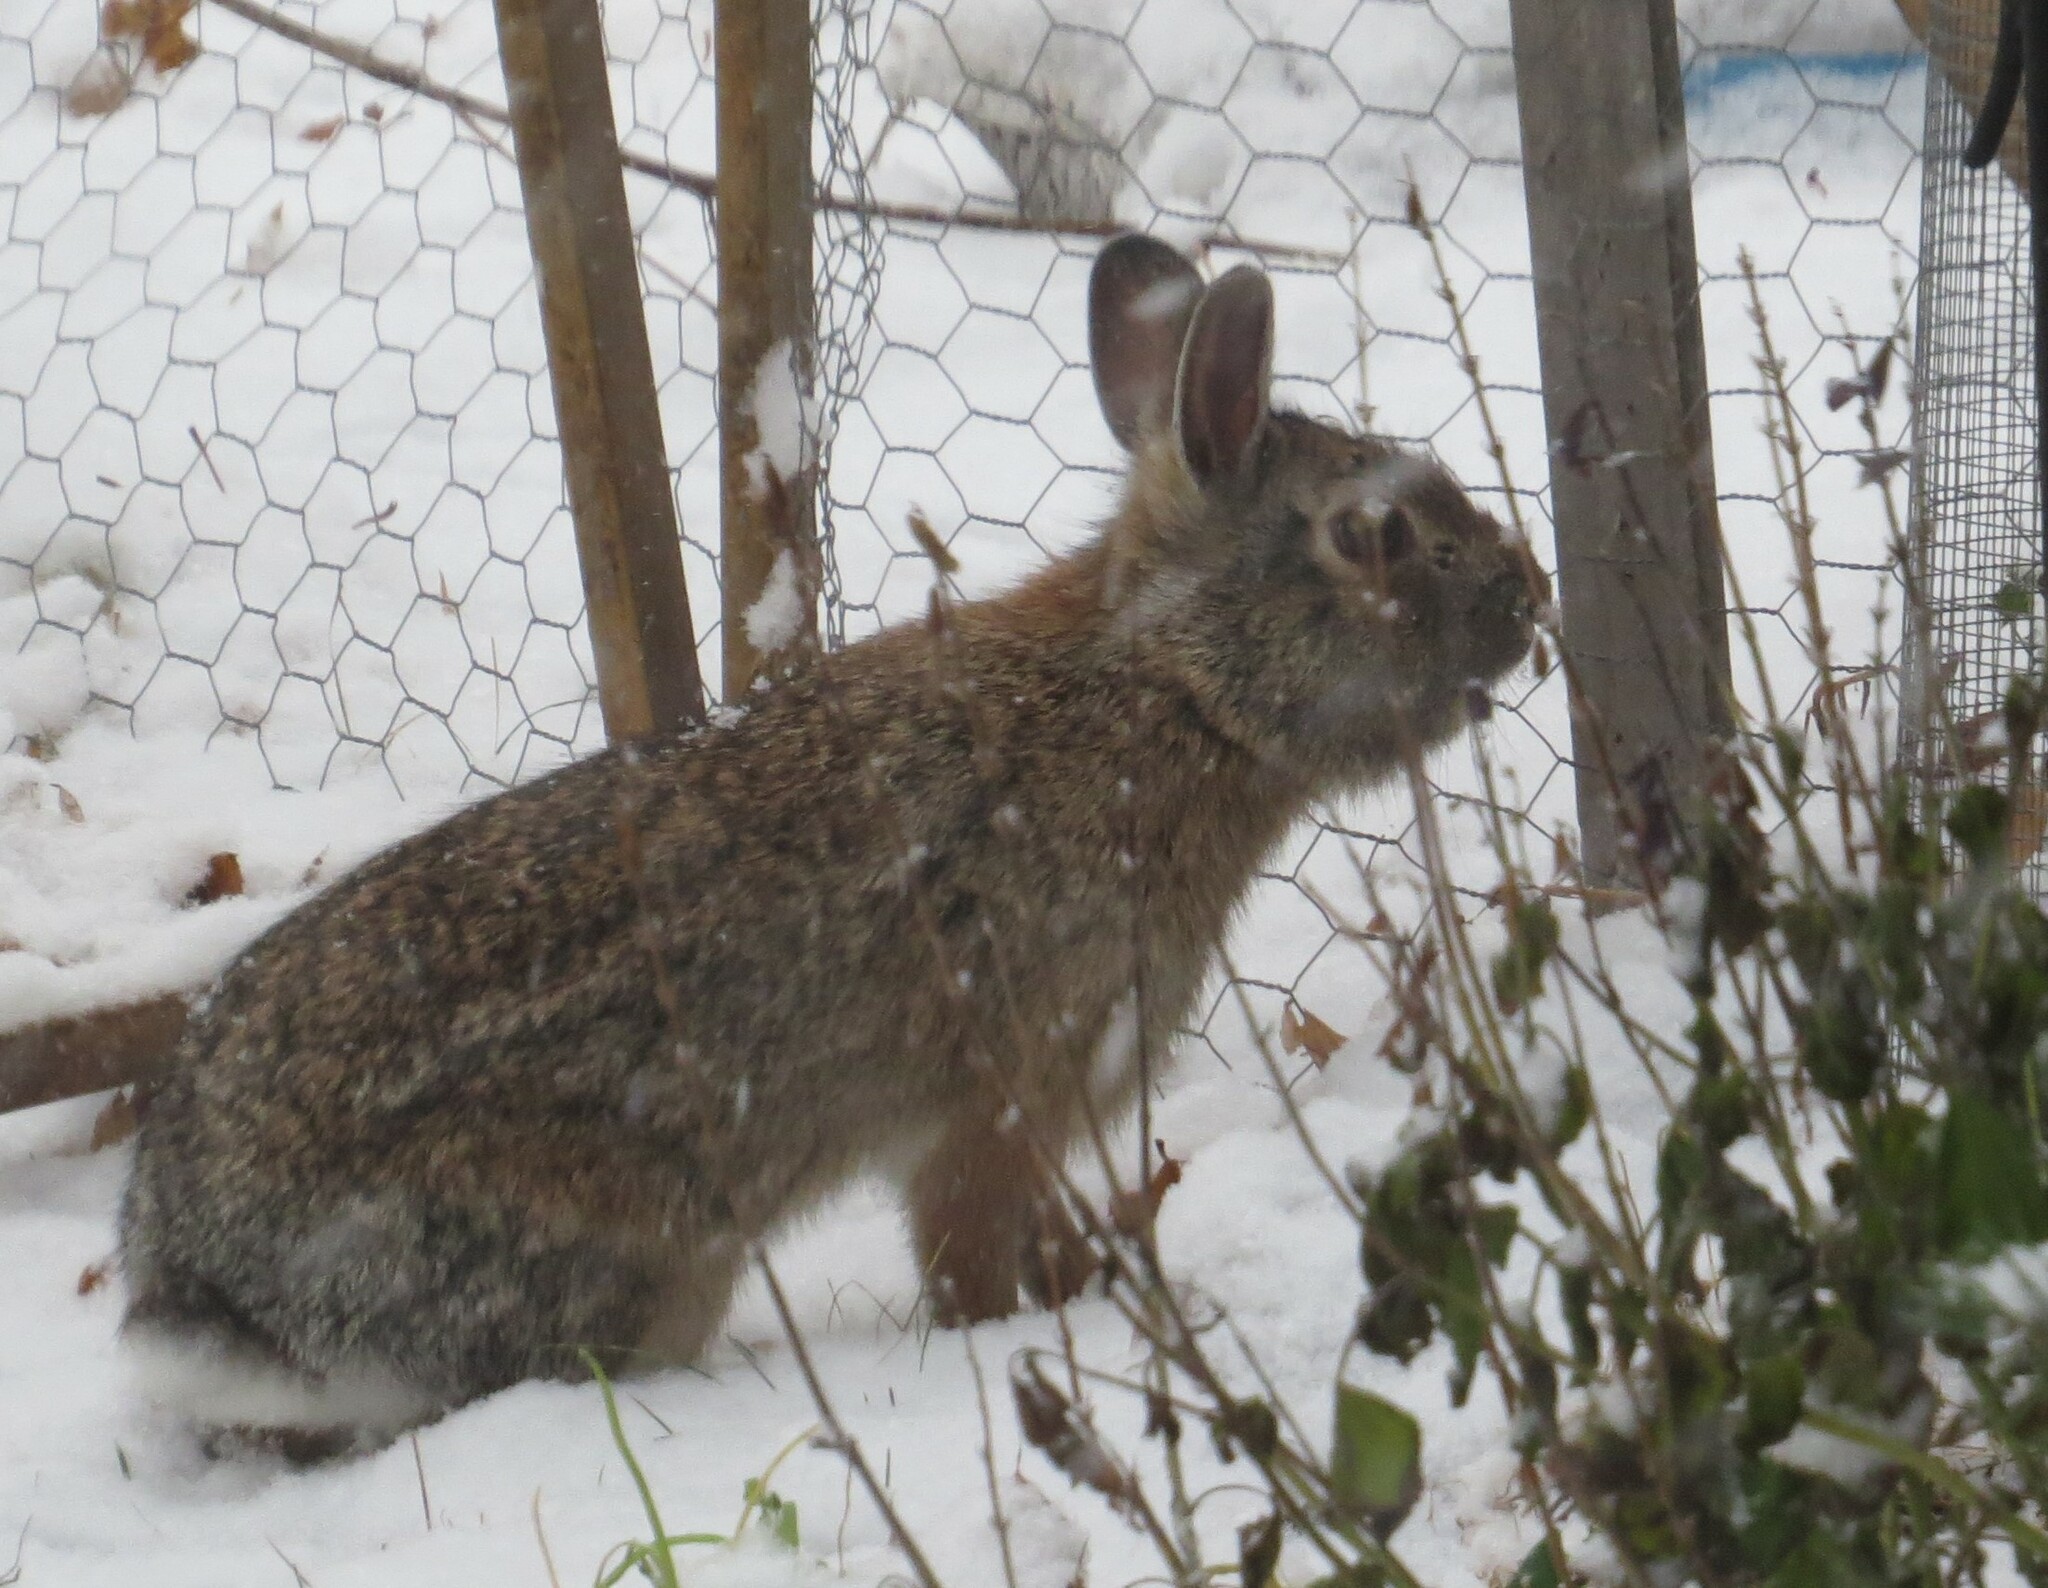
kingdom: Animalia
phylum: Chordata
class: Mammalia
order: Lagomorpha
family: Leporidae
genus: Sylvilagus
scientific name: Sylvilagus floridanus
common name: Eastern cottontail
